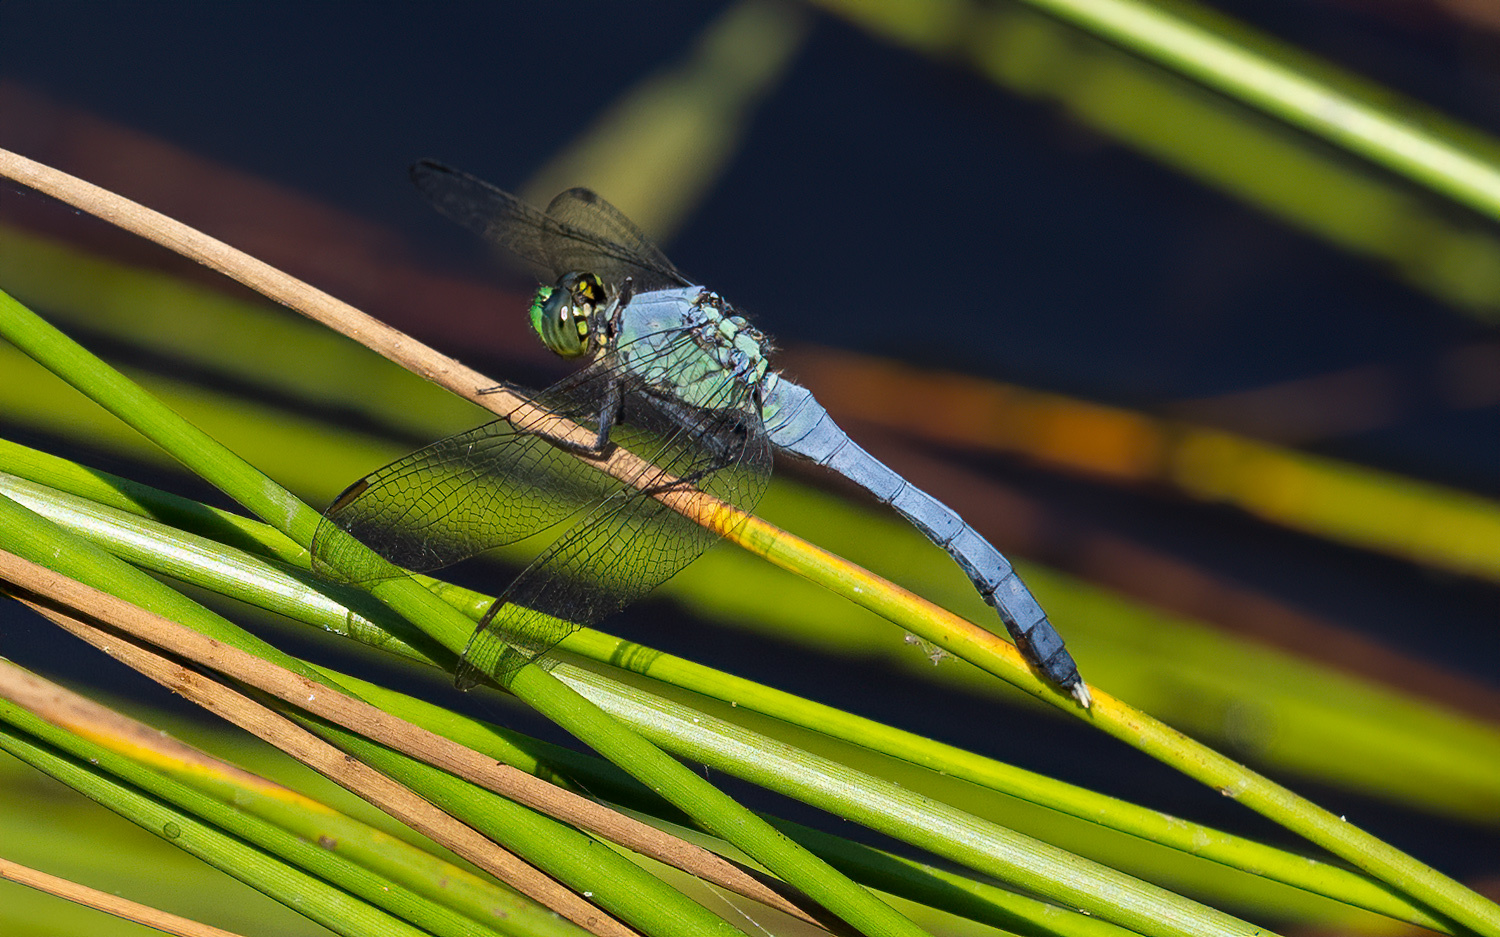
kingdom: Animalia
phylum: Arthropoda
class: Insecta
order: Odonata
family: Libellulidae
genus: Erythemis
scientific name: Erythemis simplicicollis
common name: Eastern pondhawk
